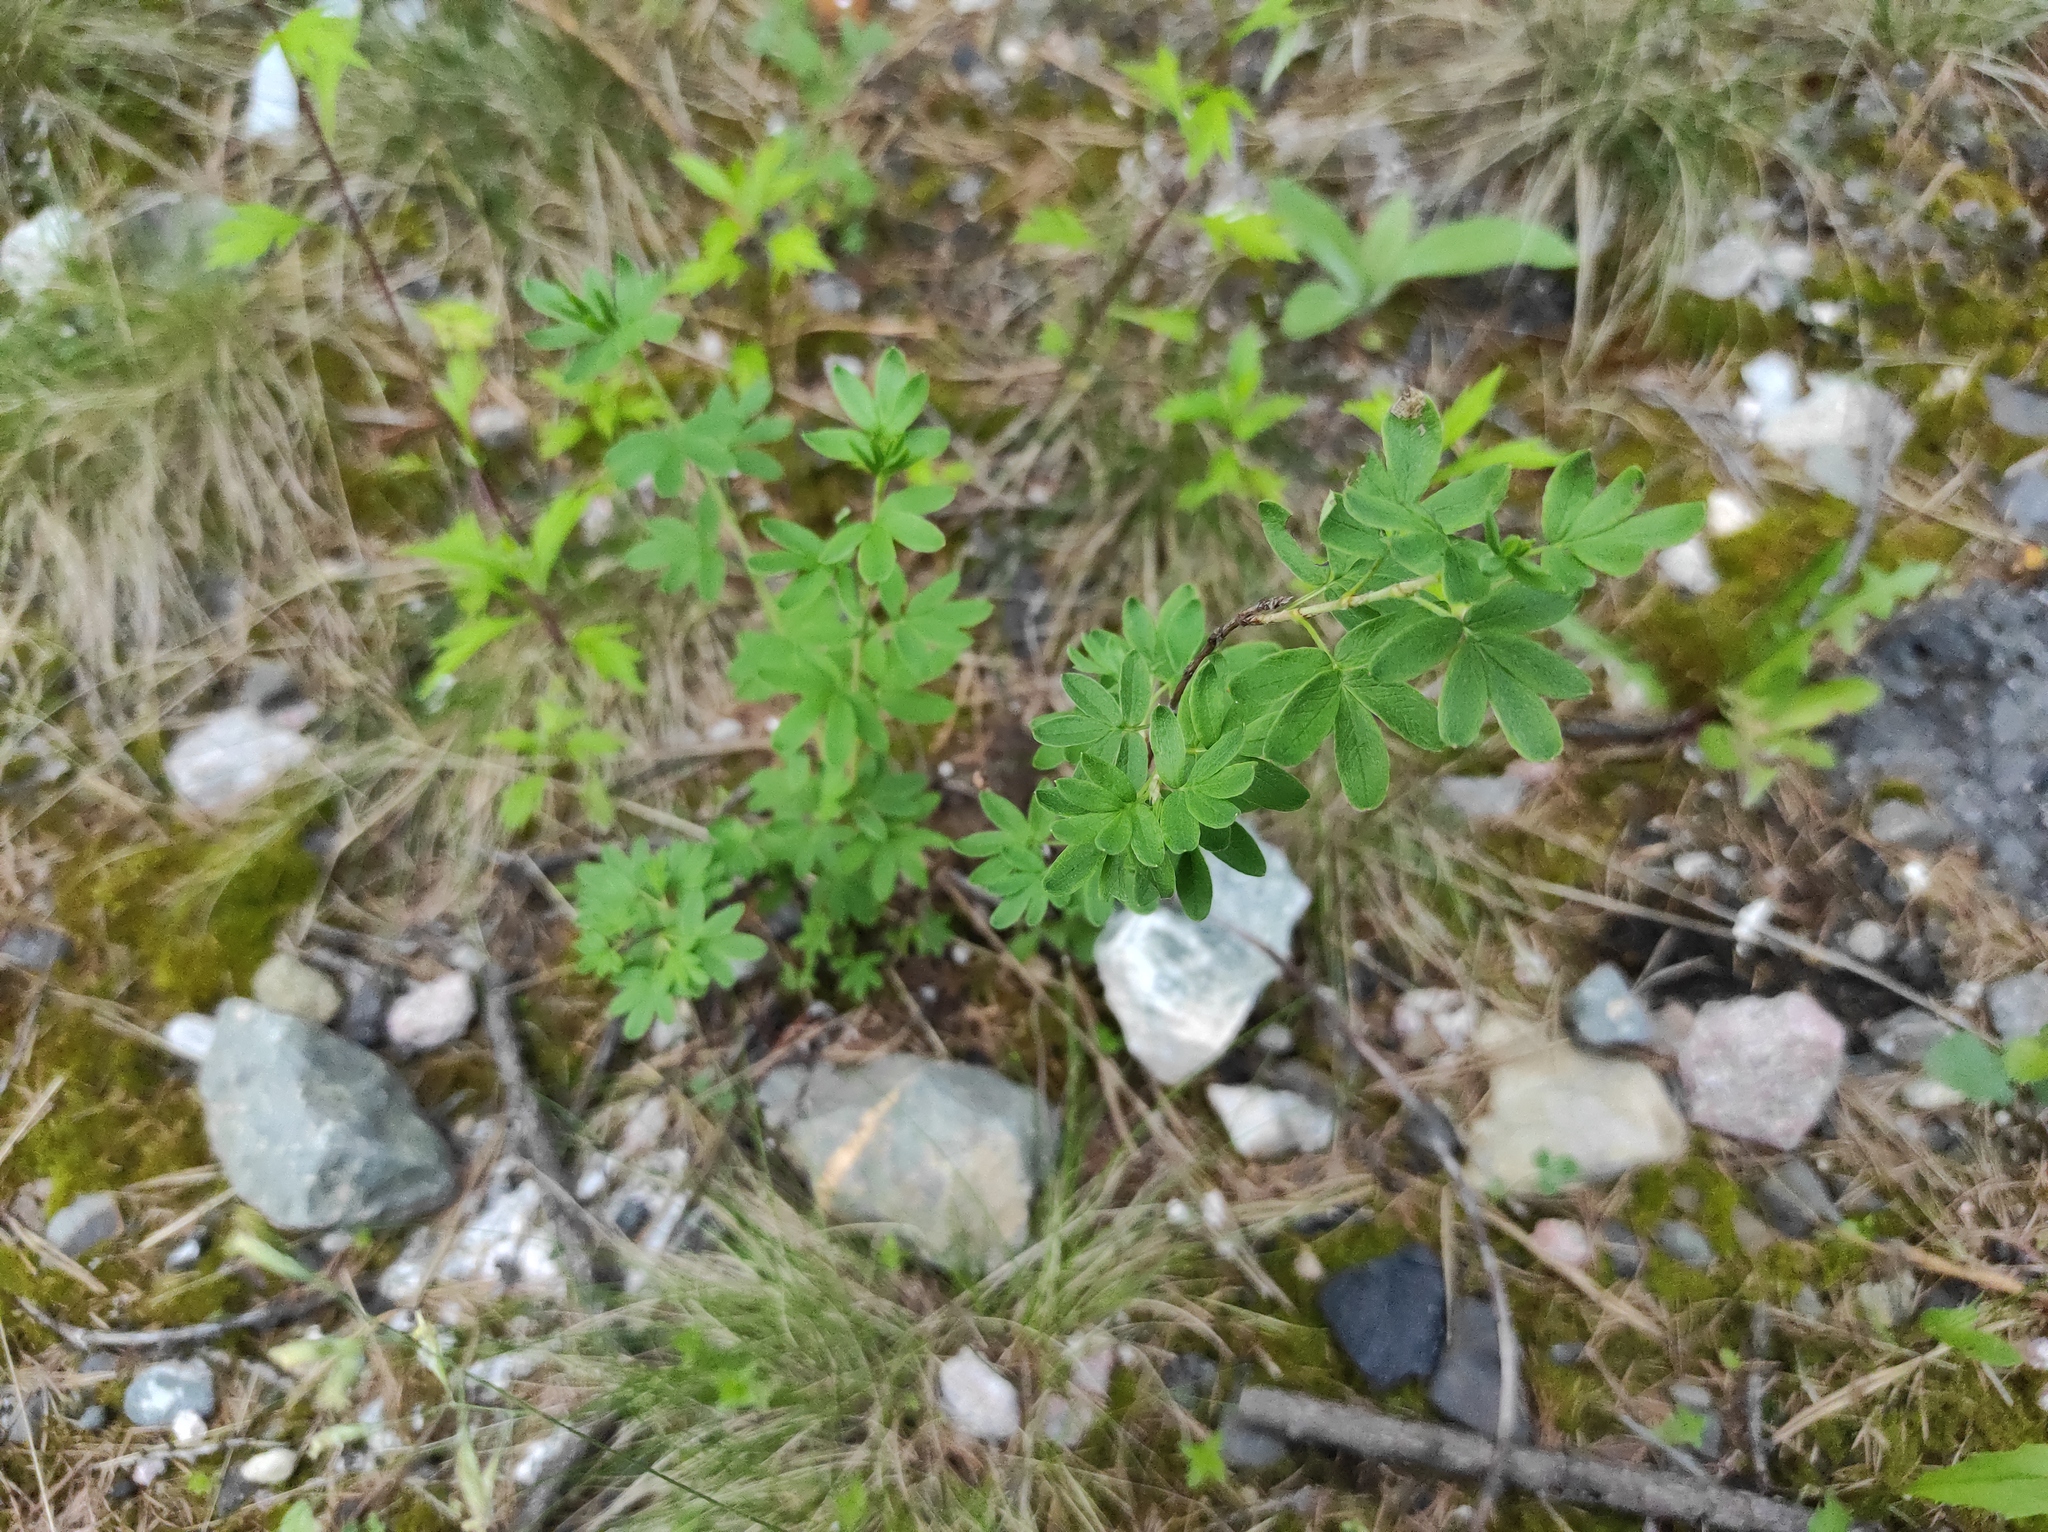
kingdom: Plantae
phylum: Tracheophyta
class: Magnoliopsida
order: Rosales
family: Rosaceae
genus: Dasiphora
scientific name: Dasiphora fruticosa
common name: Shrubby cinquefoil
